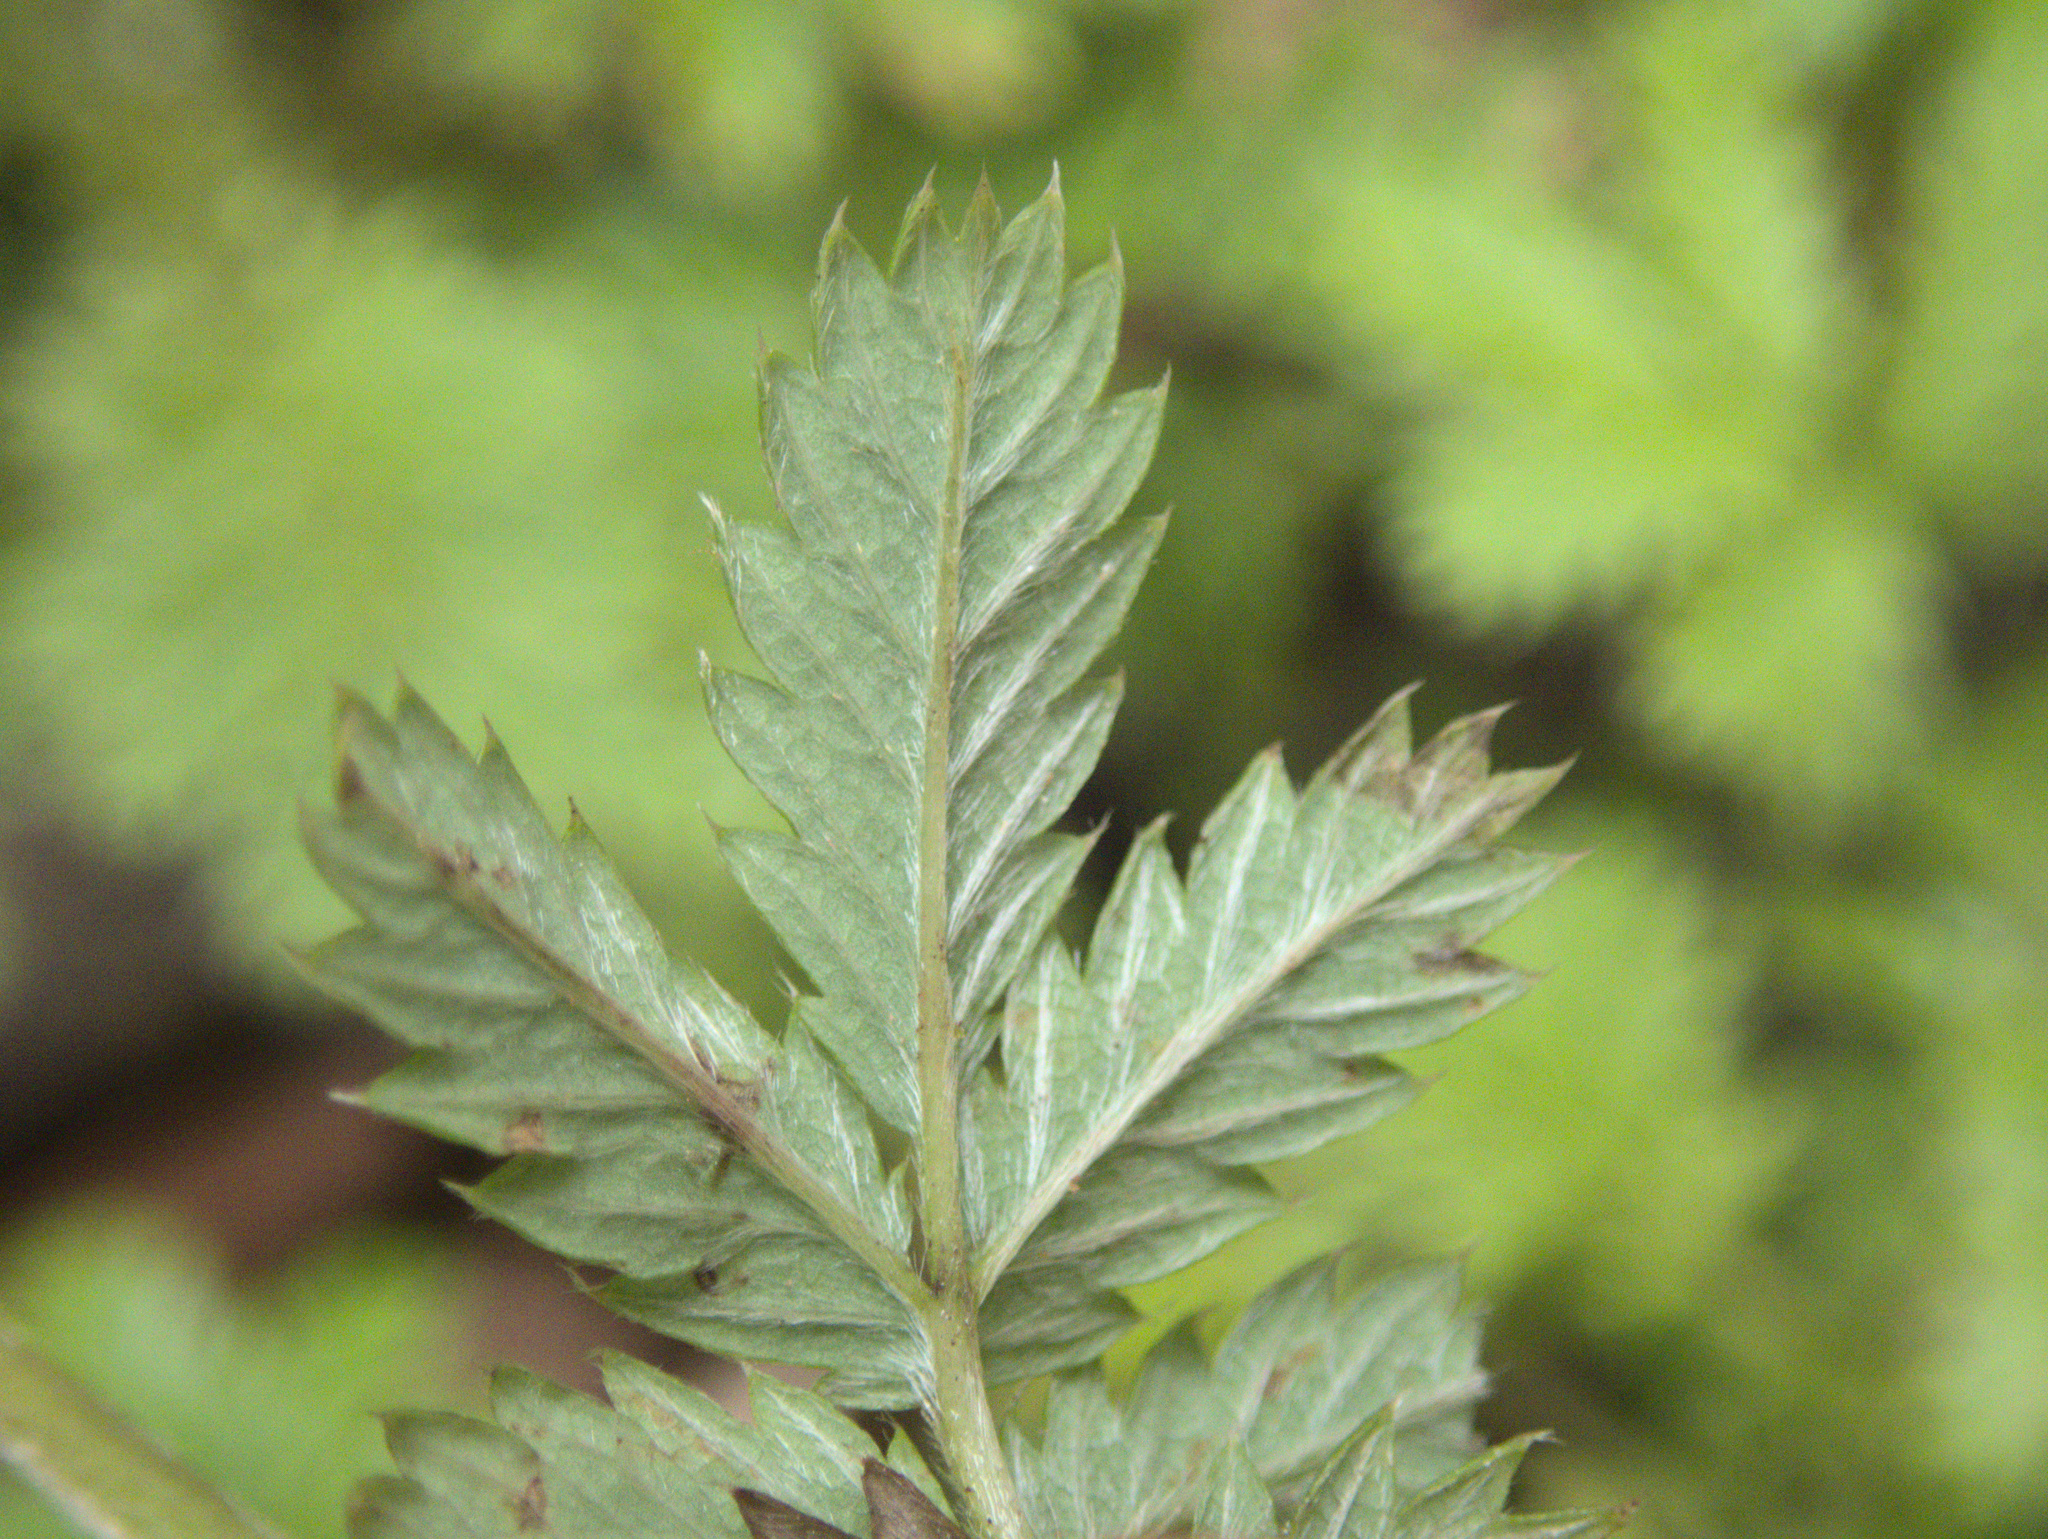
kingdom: Plantae
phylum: Tracheophyta
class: Magnoliopsida
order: Rosales
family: Rosaceae
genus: Acaena
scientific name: Acaena anserinifolia
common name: Bronze pirri-pirri-bur
